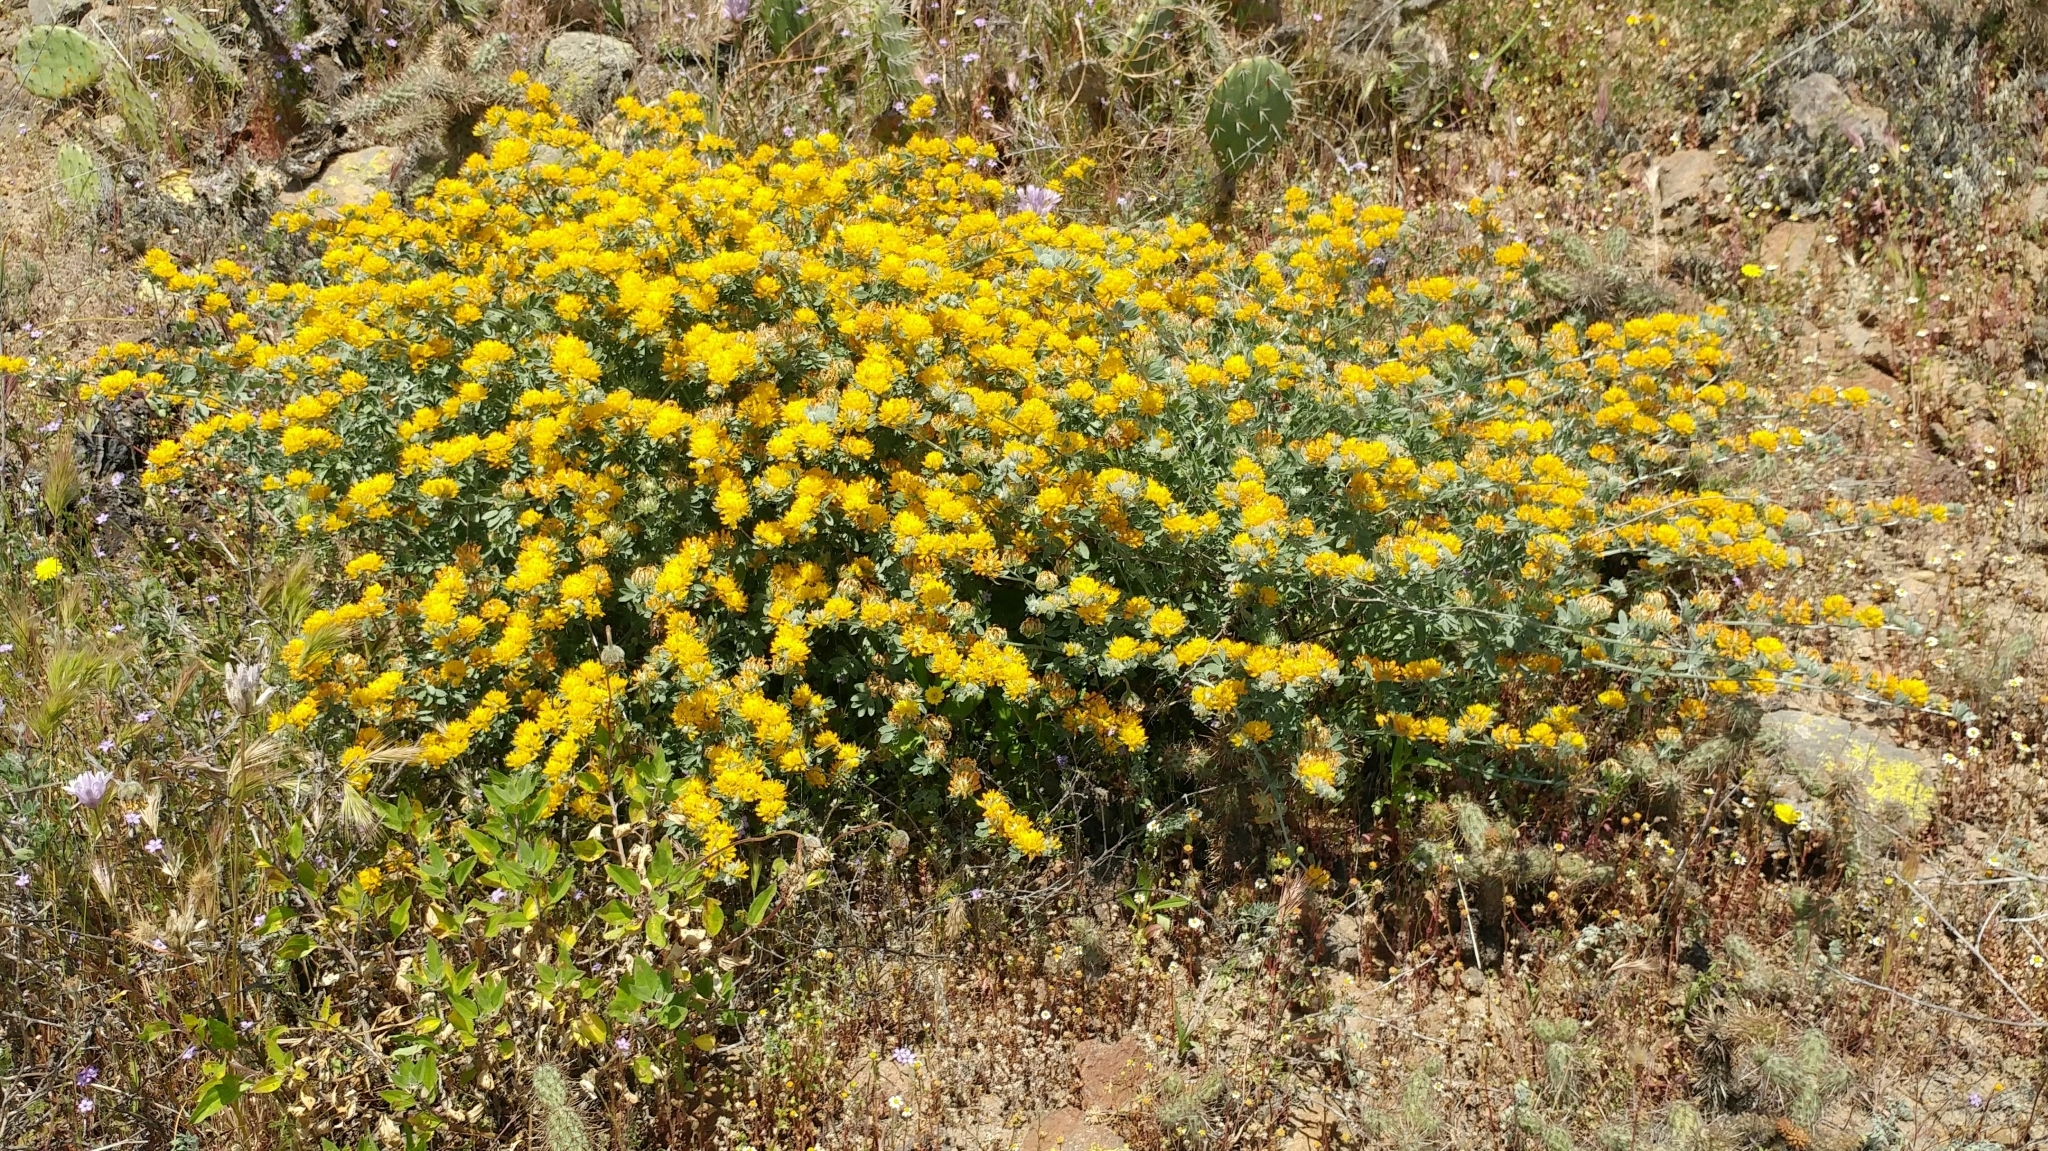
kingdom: Plantae
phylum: Tracheophyta
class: Magnoliopsida
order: Fabales
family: Fabaceae
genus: Acmispon
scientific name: Acmispon argophyllus
